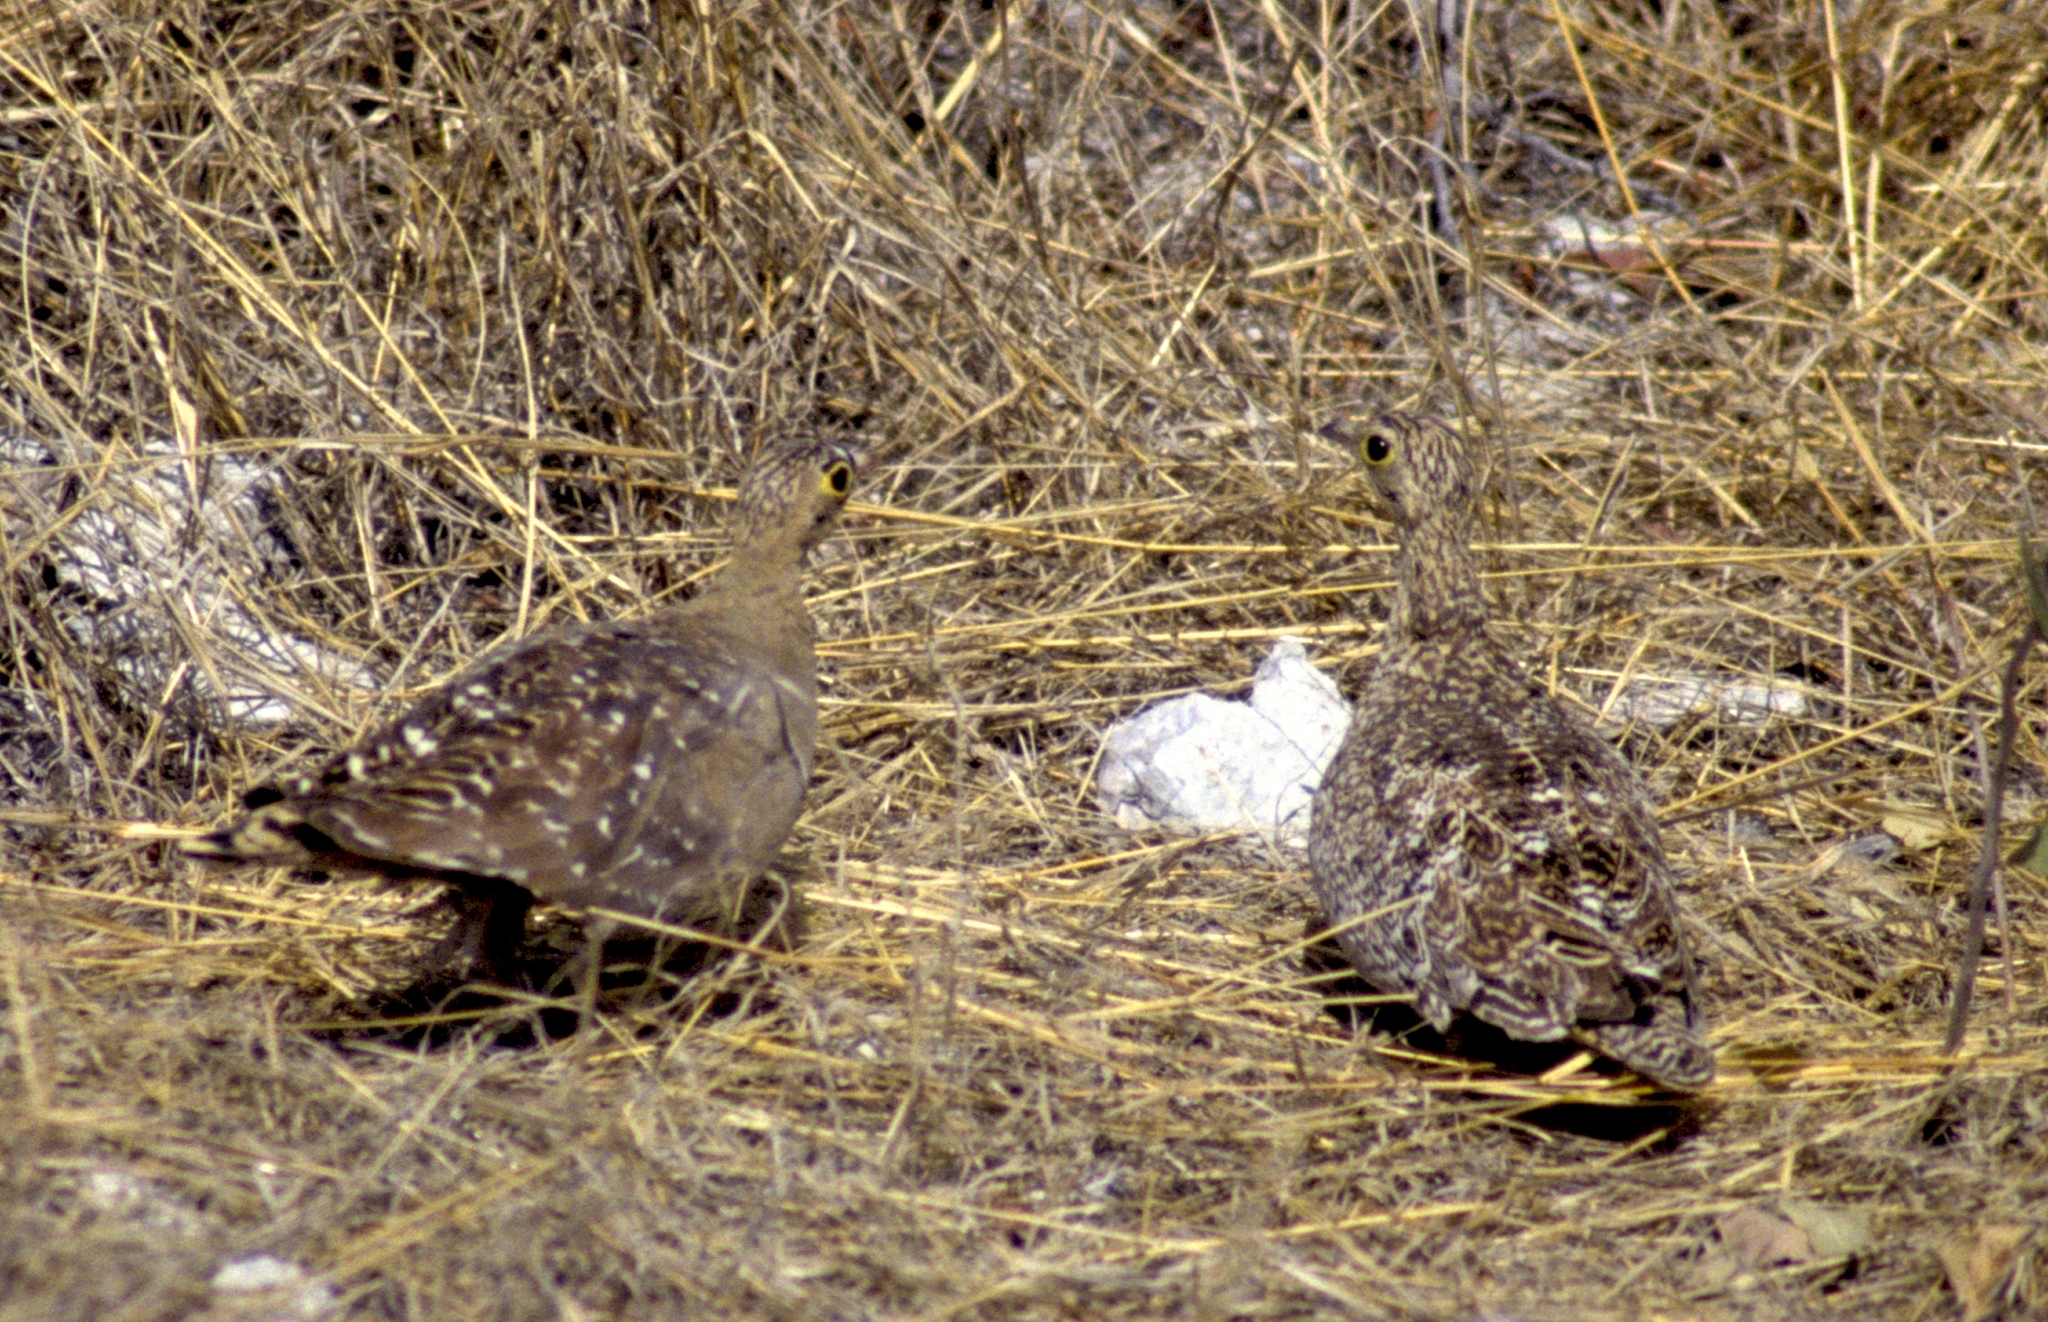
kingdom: Animalia
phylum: Chordata
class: Aves
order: Pteroclidiformes
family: Pteroclididae
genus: Pterocles
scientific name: Pterocles bicinctus
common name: Double-banded sandgrouse
